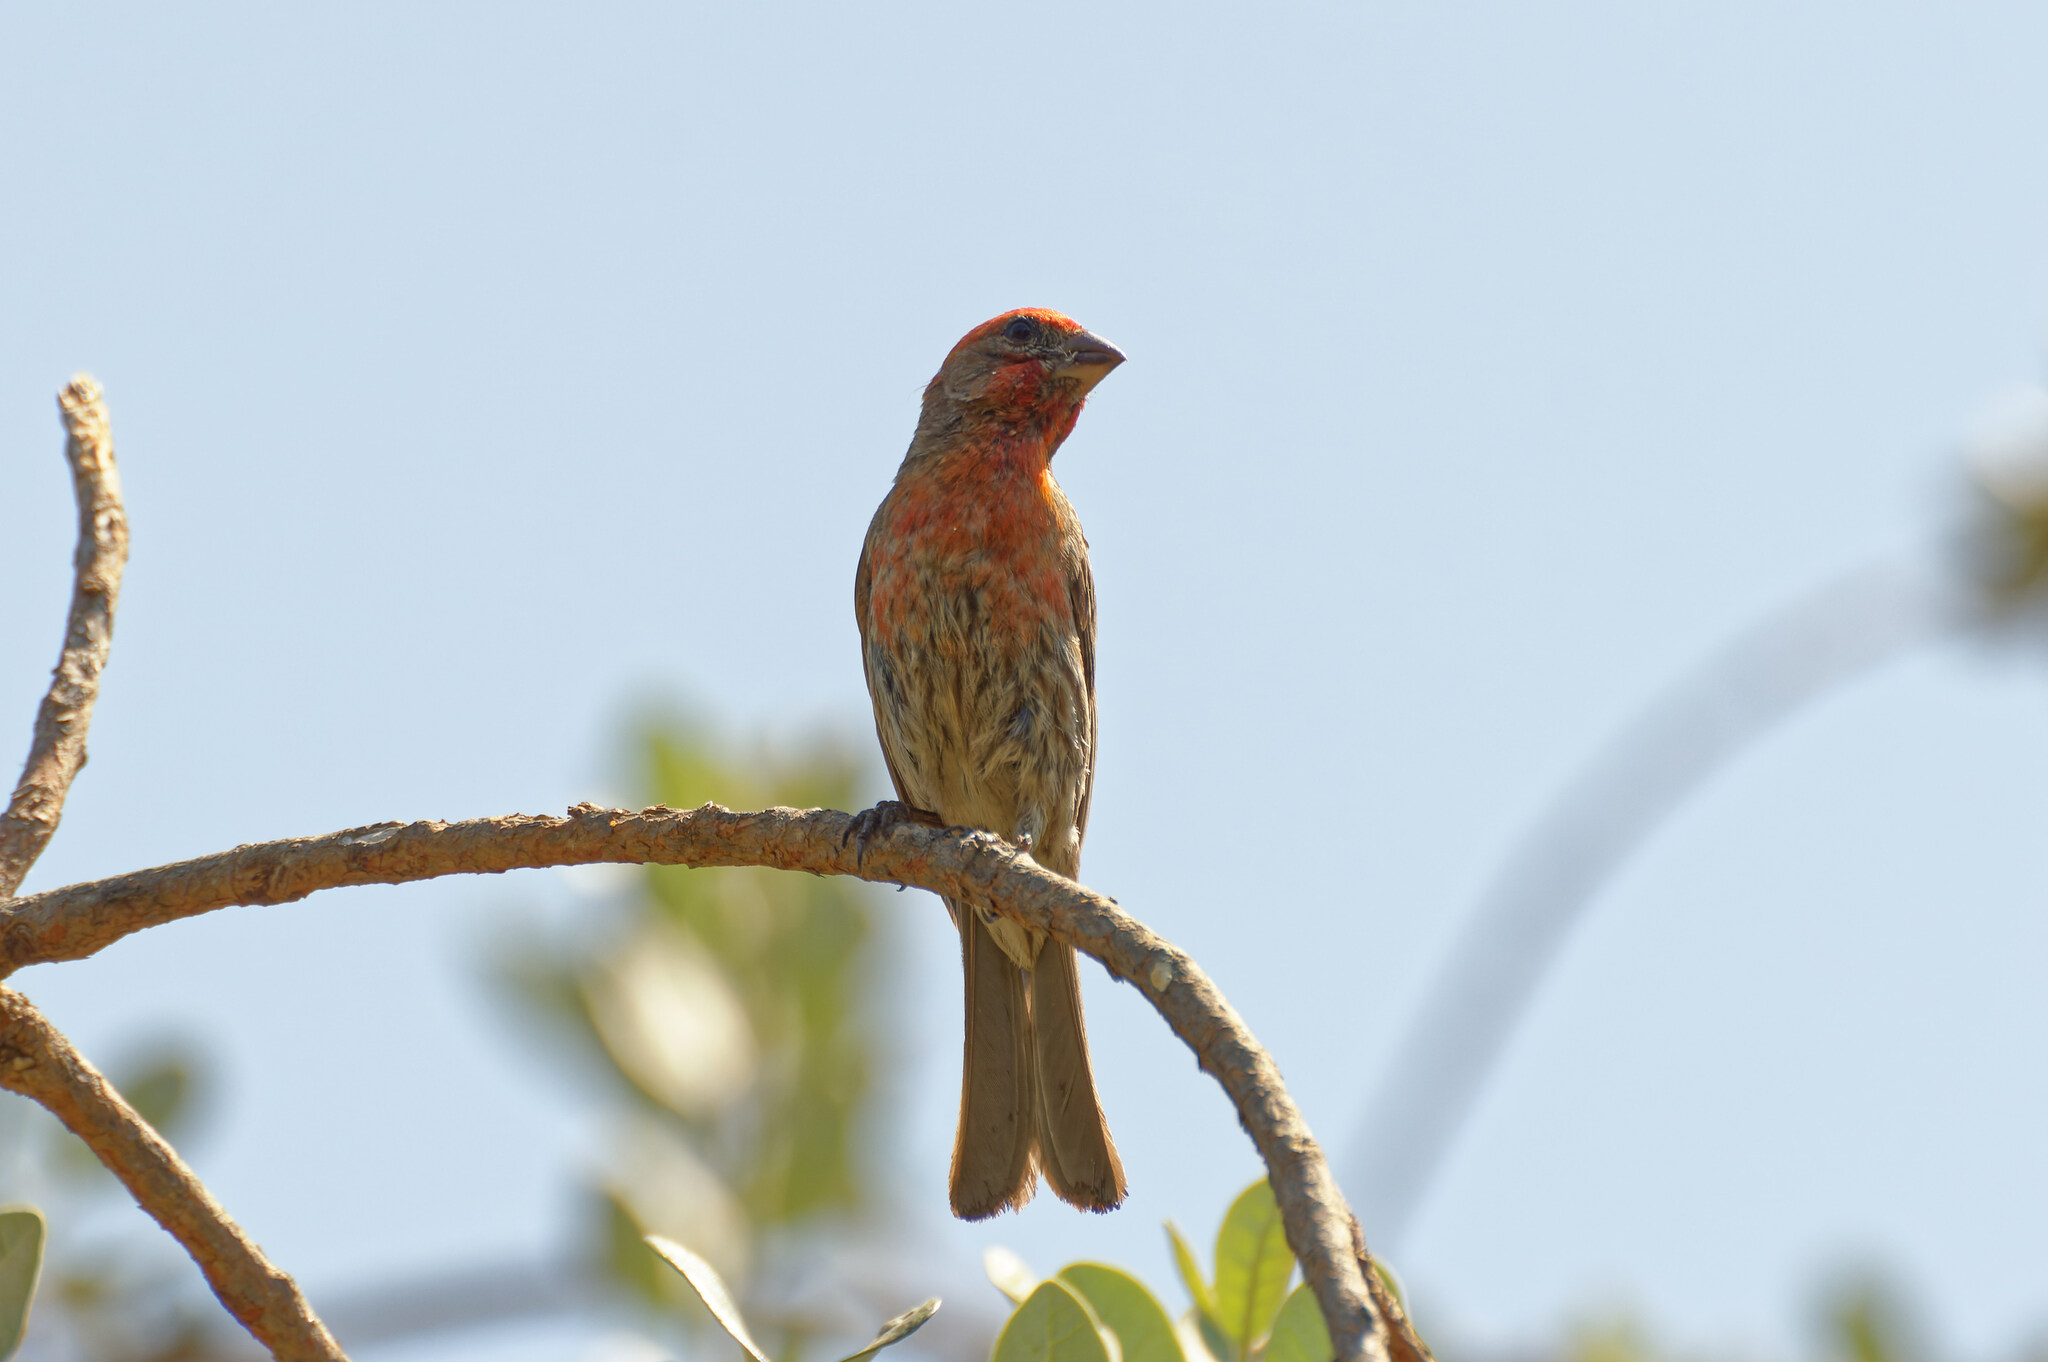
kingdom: Animalia
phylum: Chordata
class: Aves
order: Passeriformes
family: Fringillidae
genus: Haemorhous
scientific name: Haemorhous mexicanus
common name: House finch
